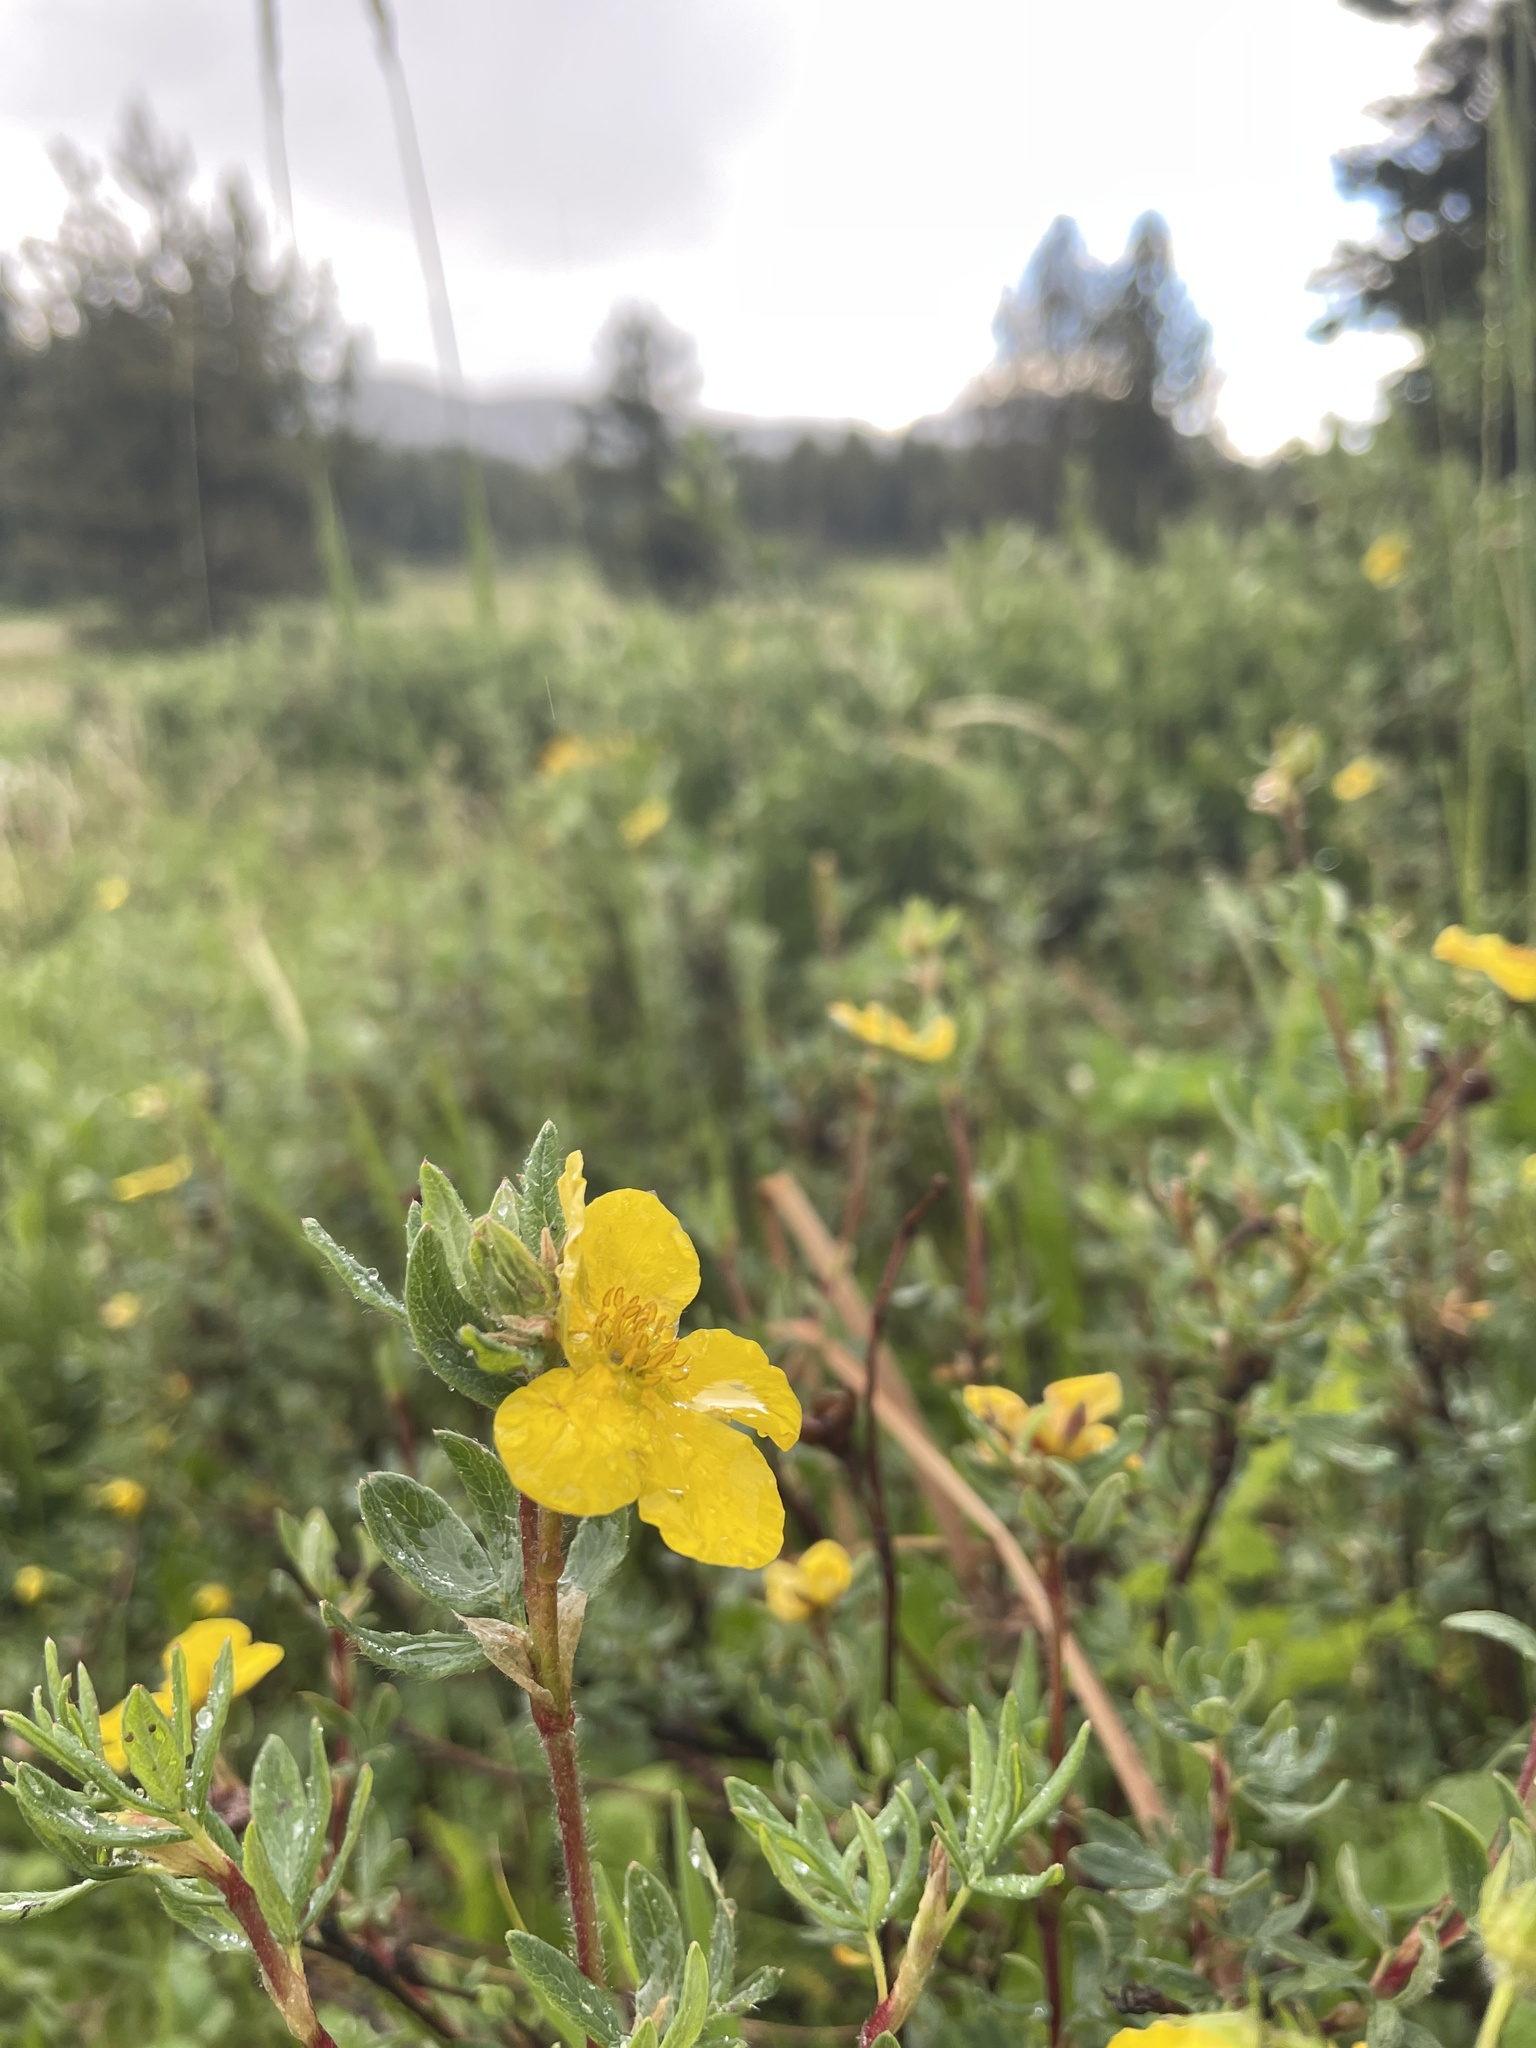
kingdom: Plantae
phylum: Tracheophyta
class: Magnoliopsida
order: Rosales
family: Rosaceae
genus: Dasiphora
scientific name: Dasiphora fruticosa
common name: Shrubby cinquefoil
